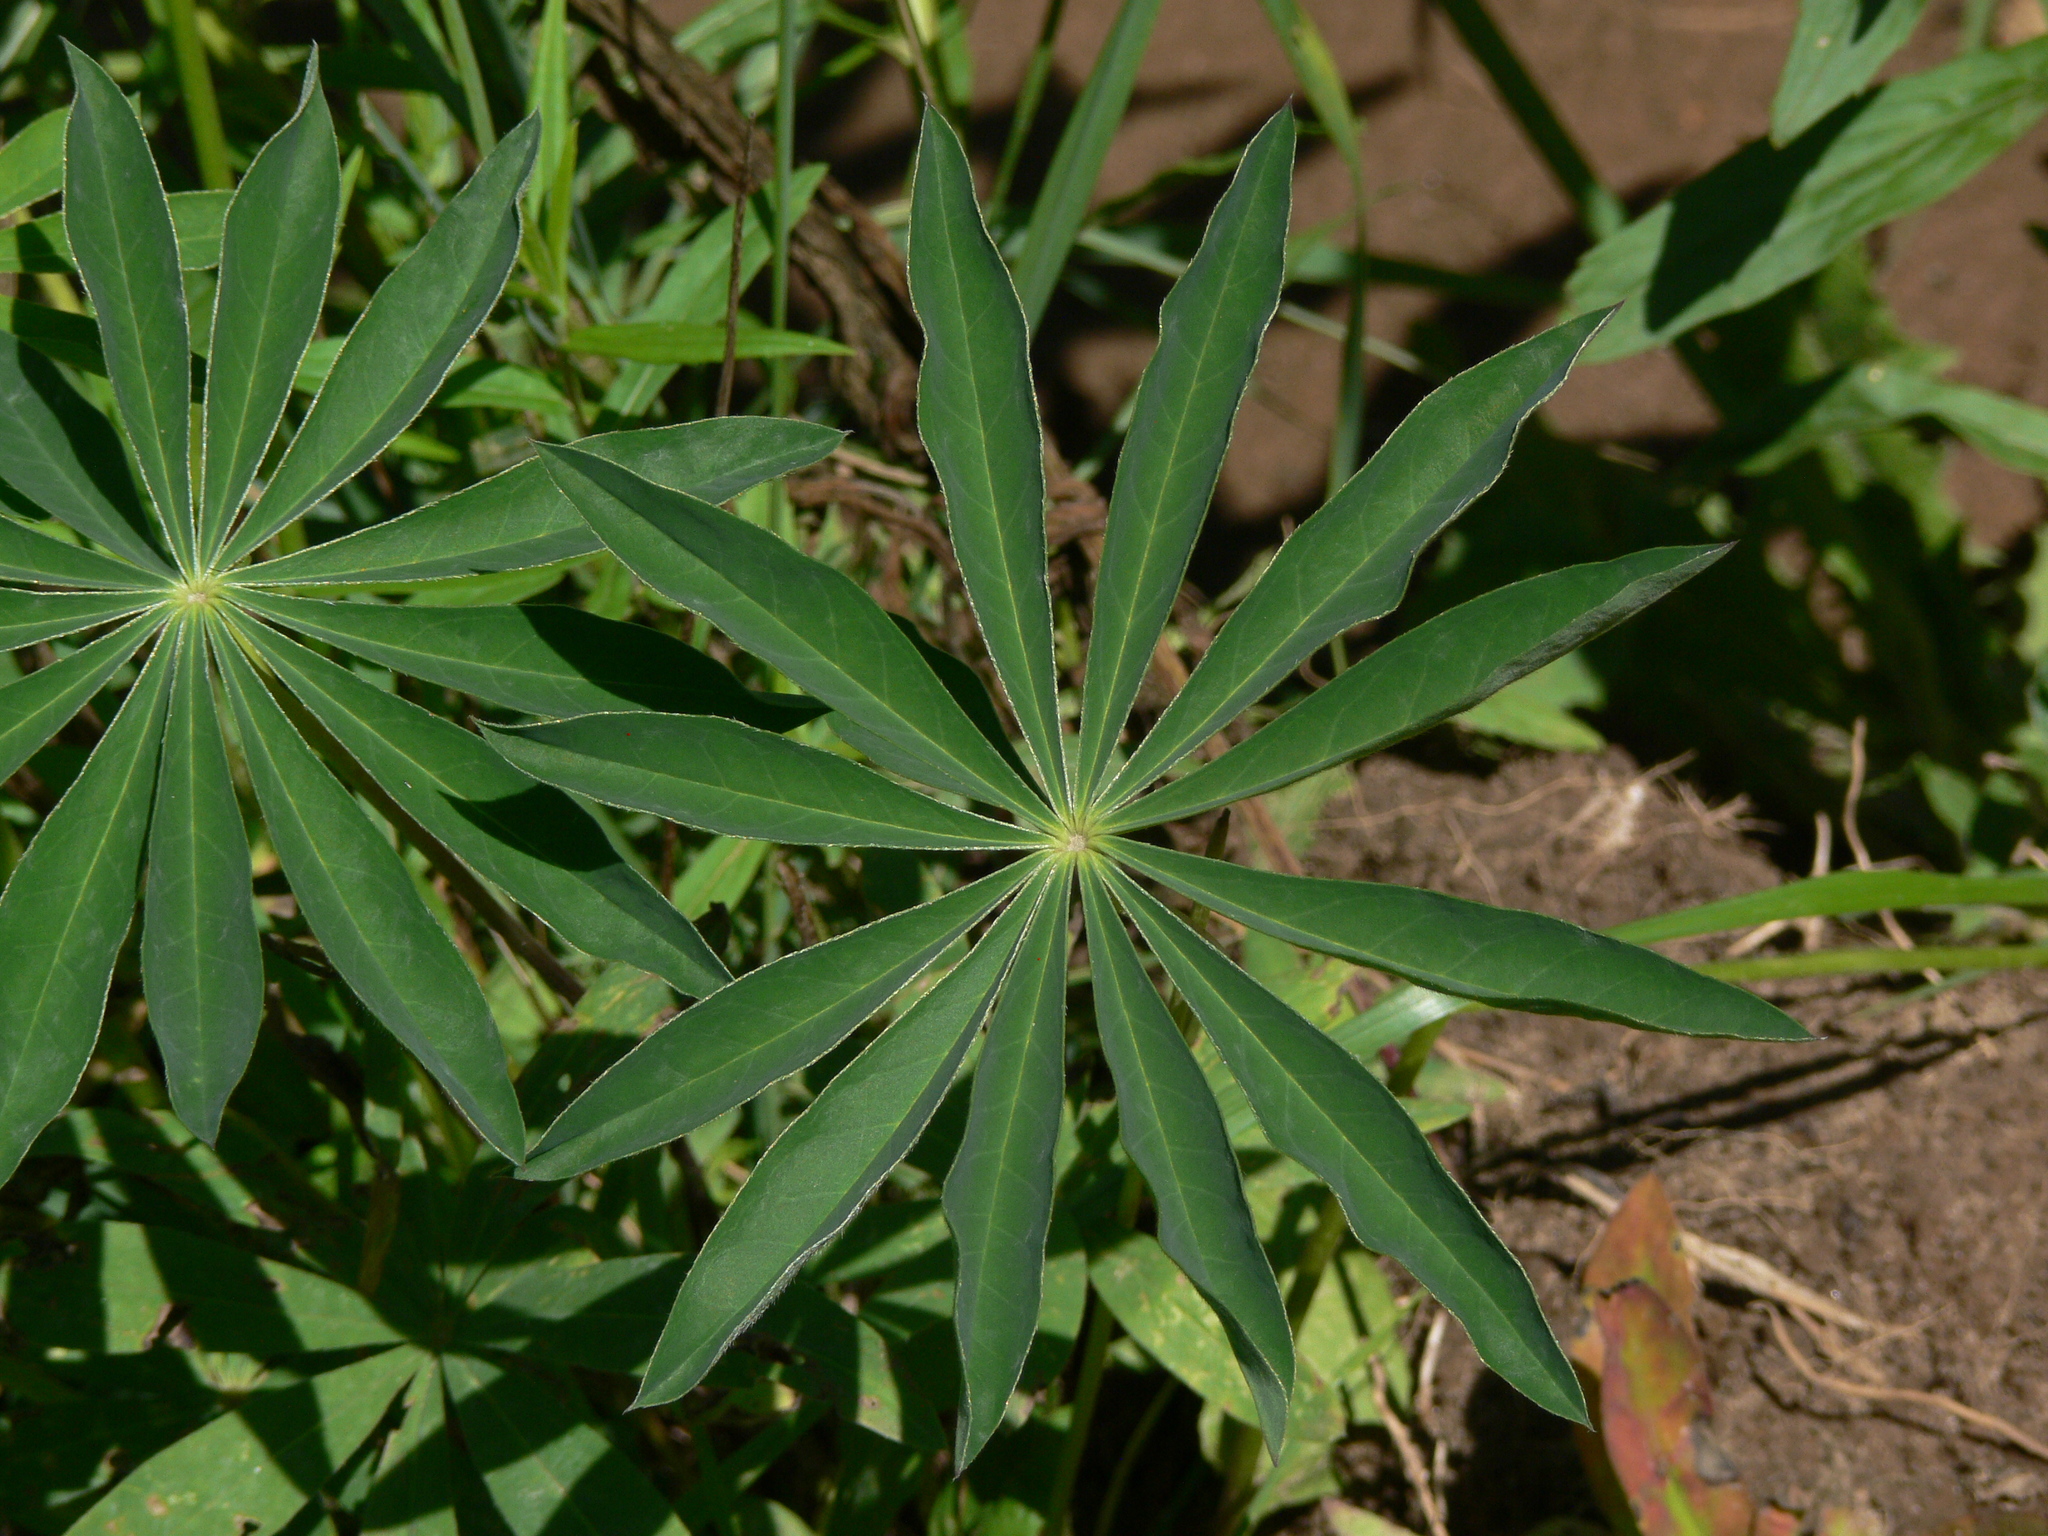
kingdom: Plantae
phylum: Tracheophyta
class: Magnoliopsida
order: Fabales
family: Fabaceae
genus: Lupinus
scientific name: Lupinus polyphyllus
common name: Garden lupin
